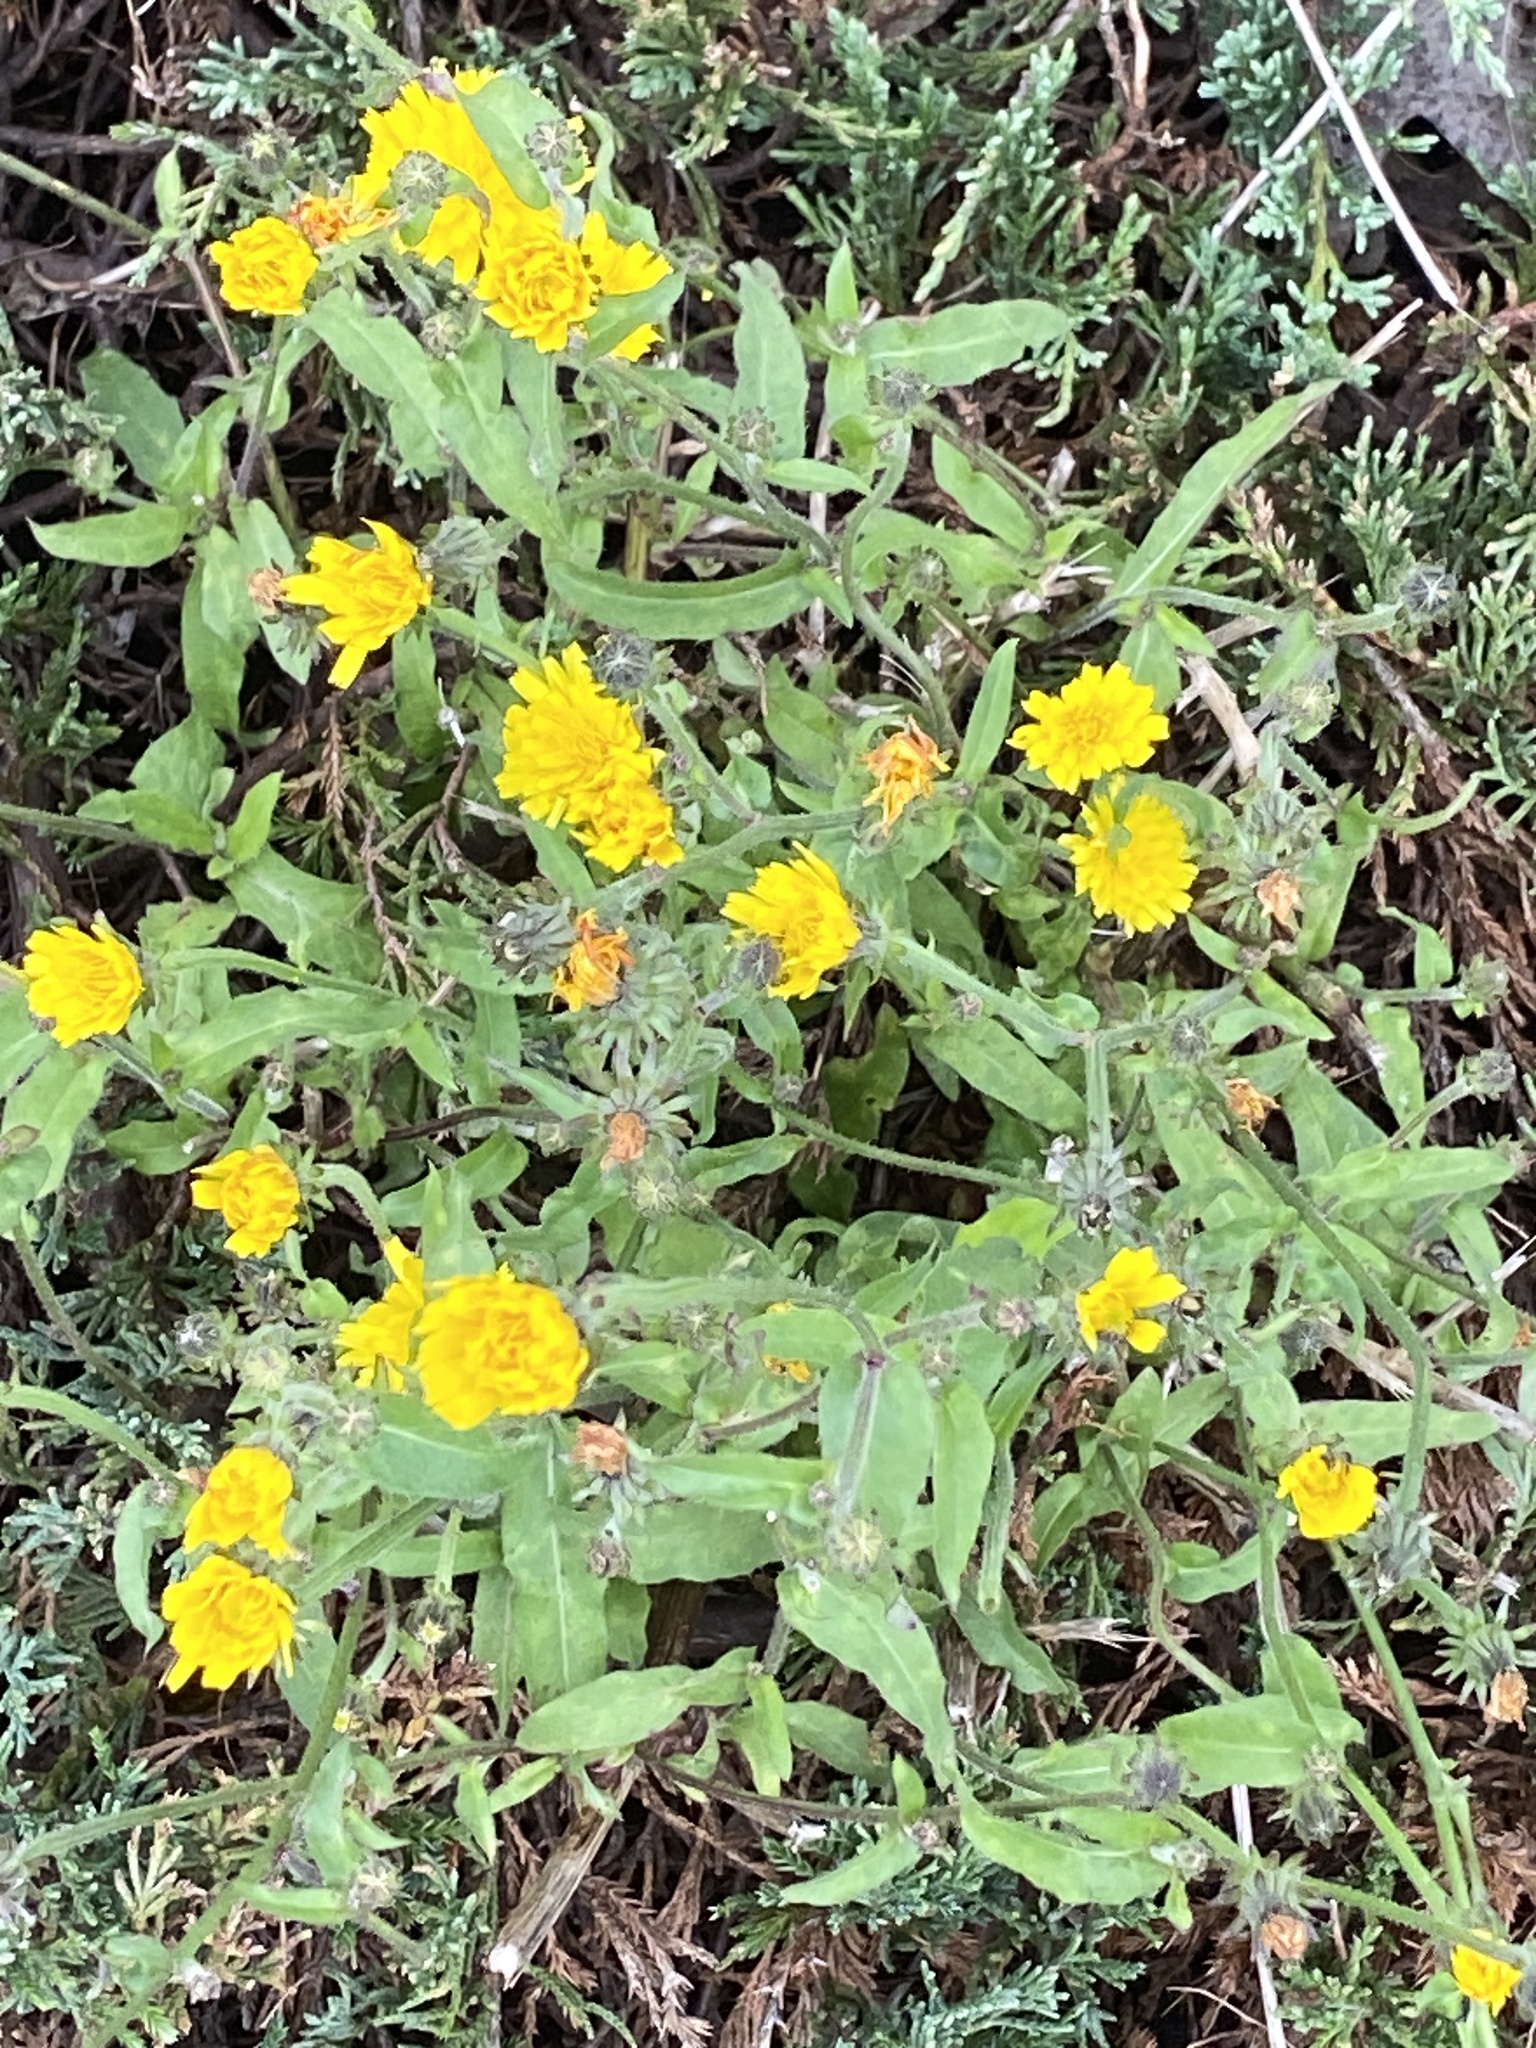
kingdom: Plantae
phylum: Tracheophyta
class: Magnoliopsida
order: Asterales
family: Asteraceae
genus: Picris
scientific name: Picris hieracioides
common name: Hawkweed oxtongue
